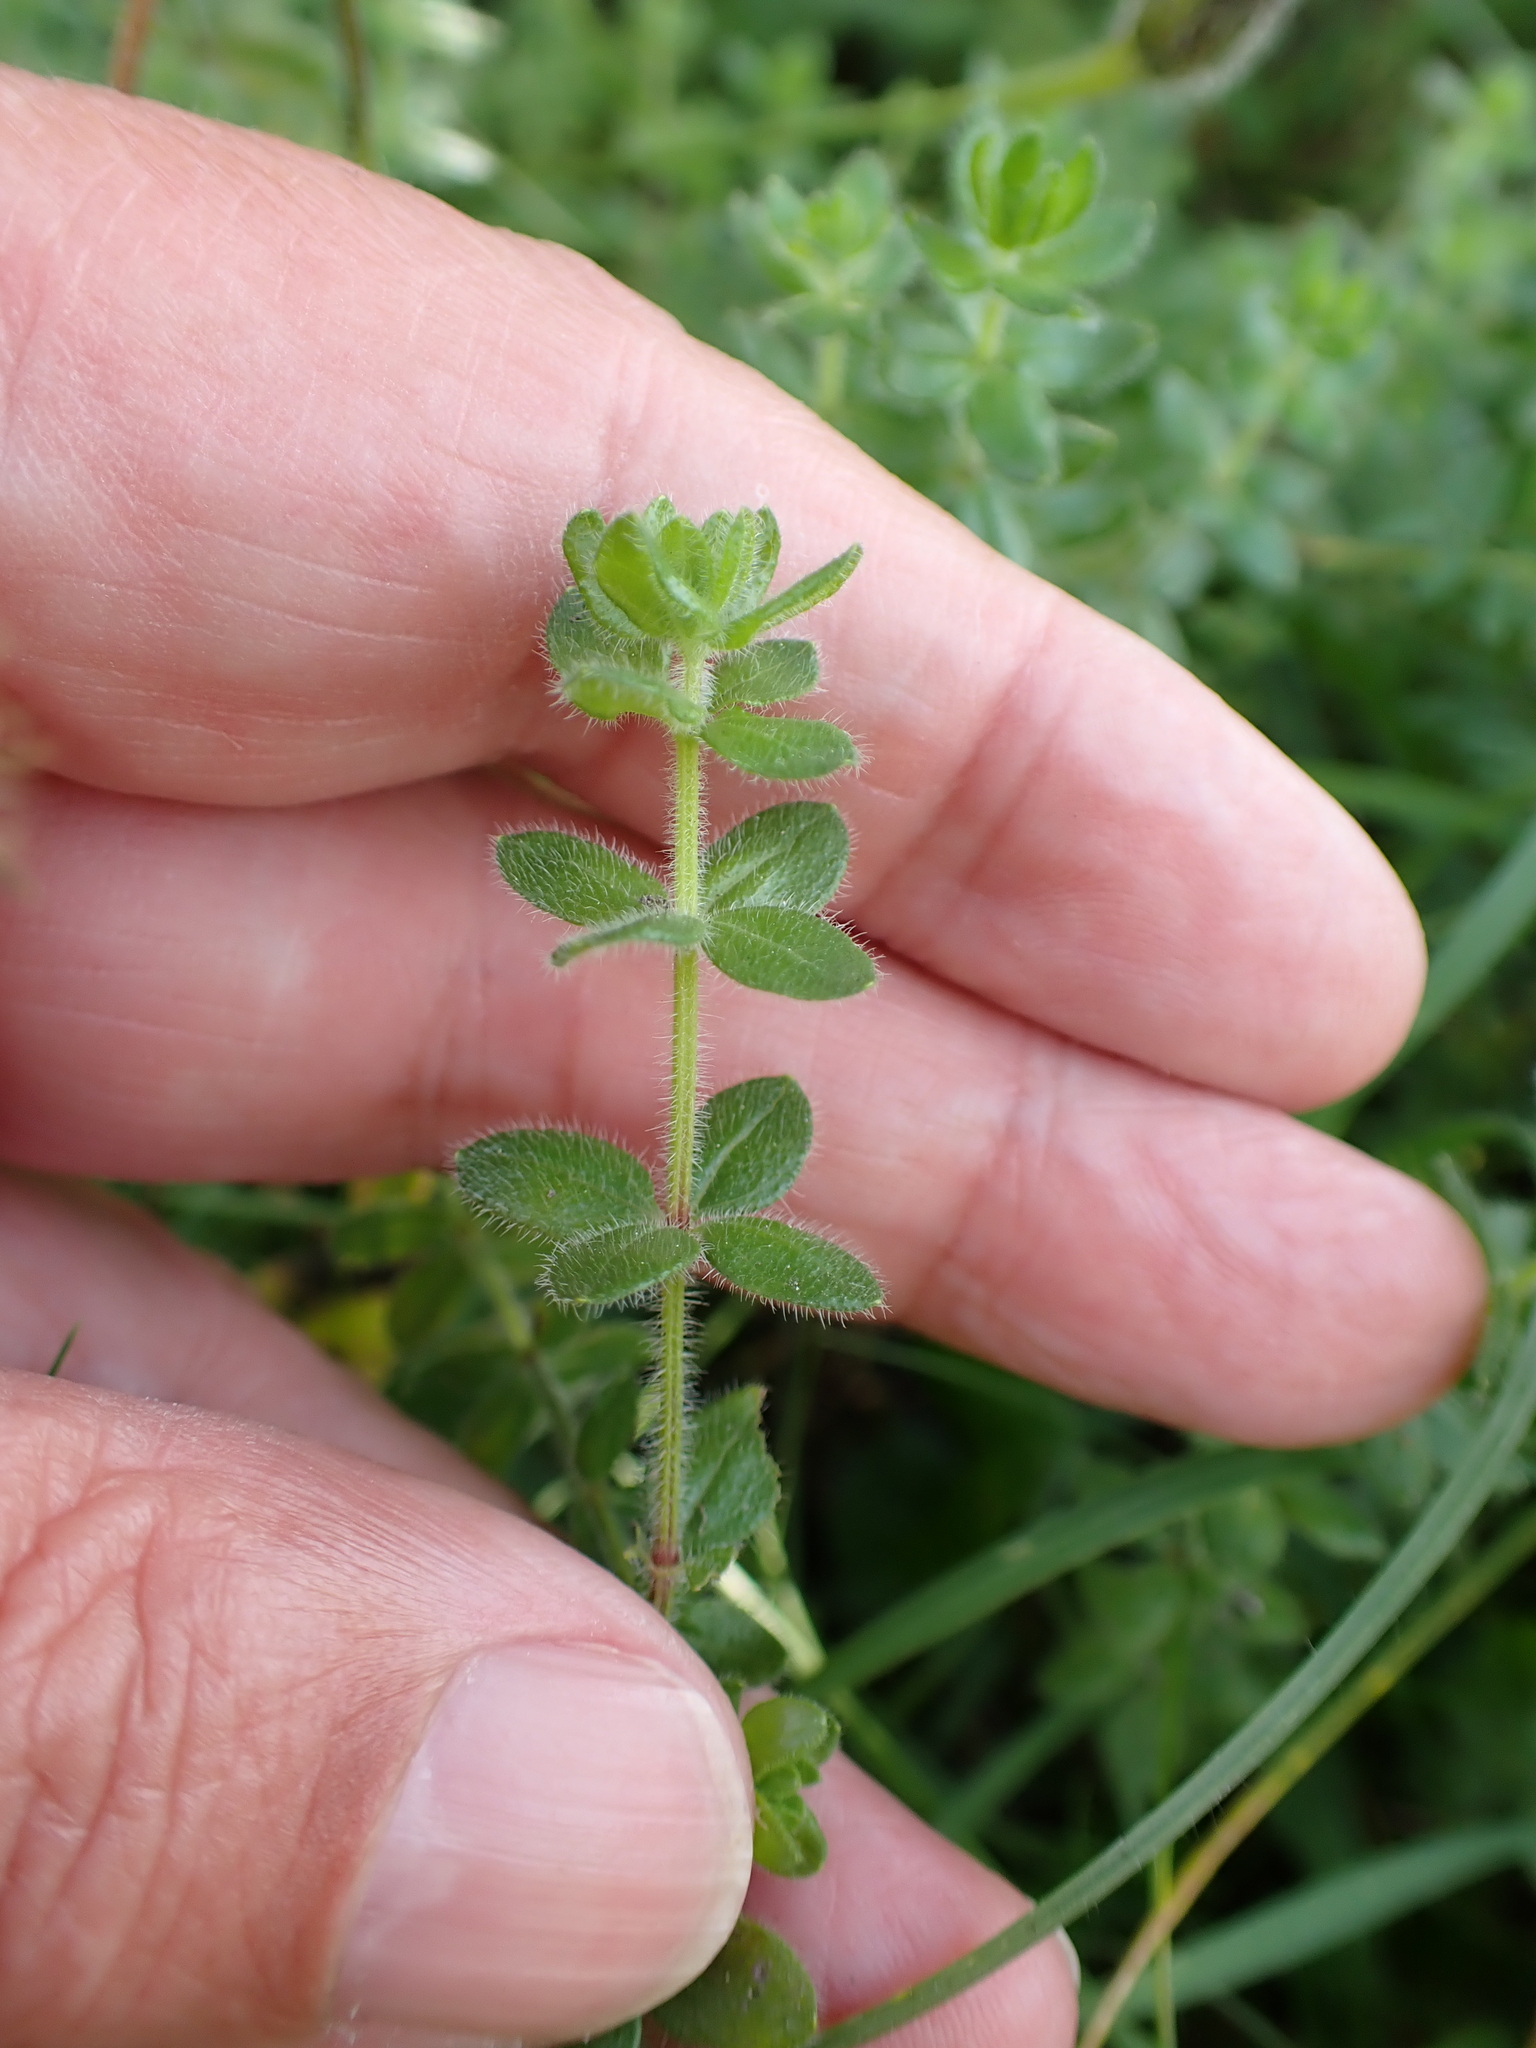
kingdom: Plantae
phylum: Tracheophyta
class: Magnoliopsida
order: Gentianales
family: Rubiaceae
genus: Cruciata
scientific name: Cruciata laevipes
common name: Crosswort
